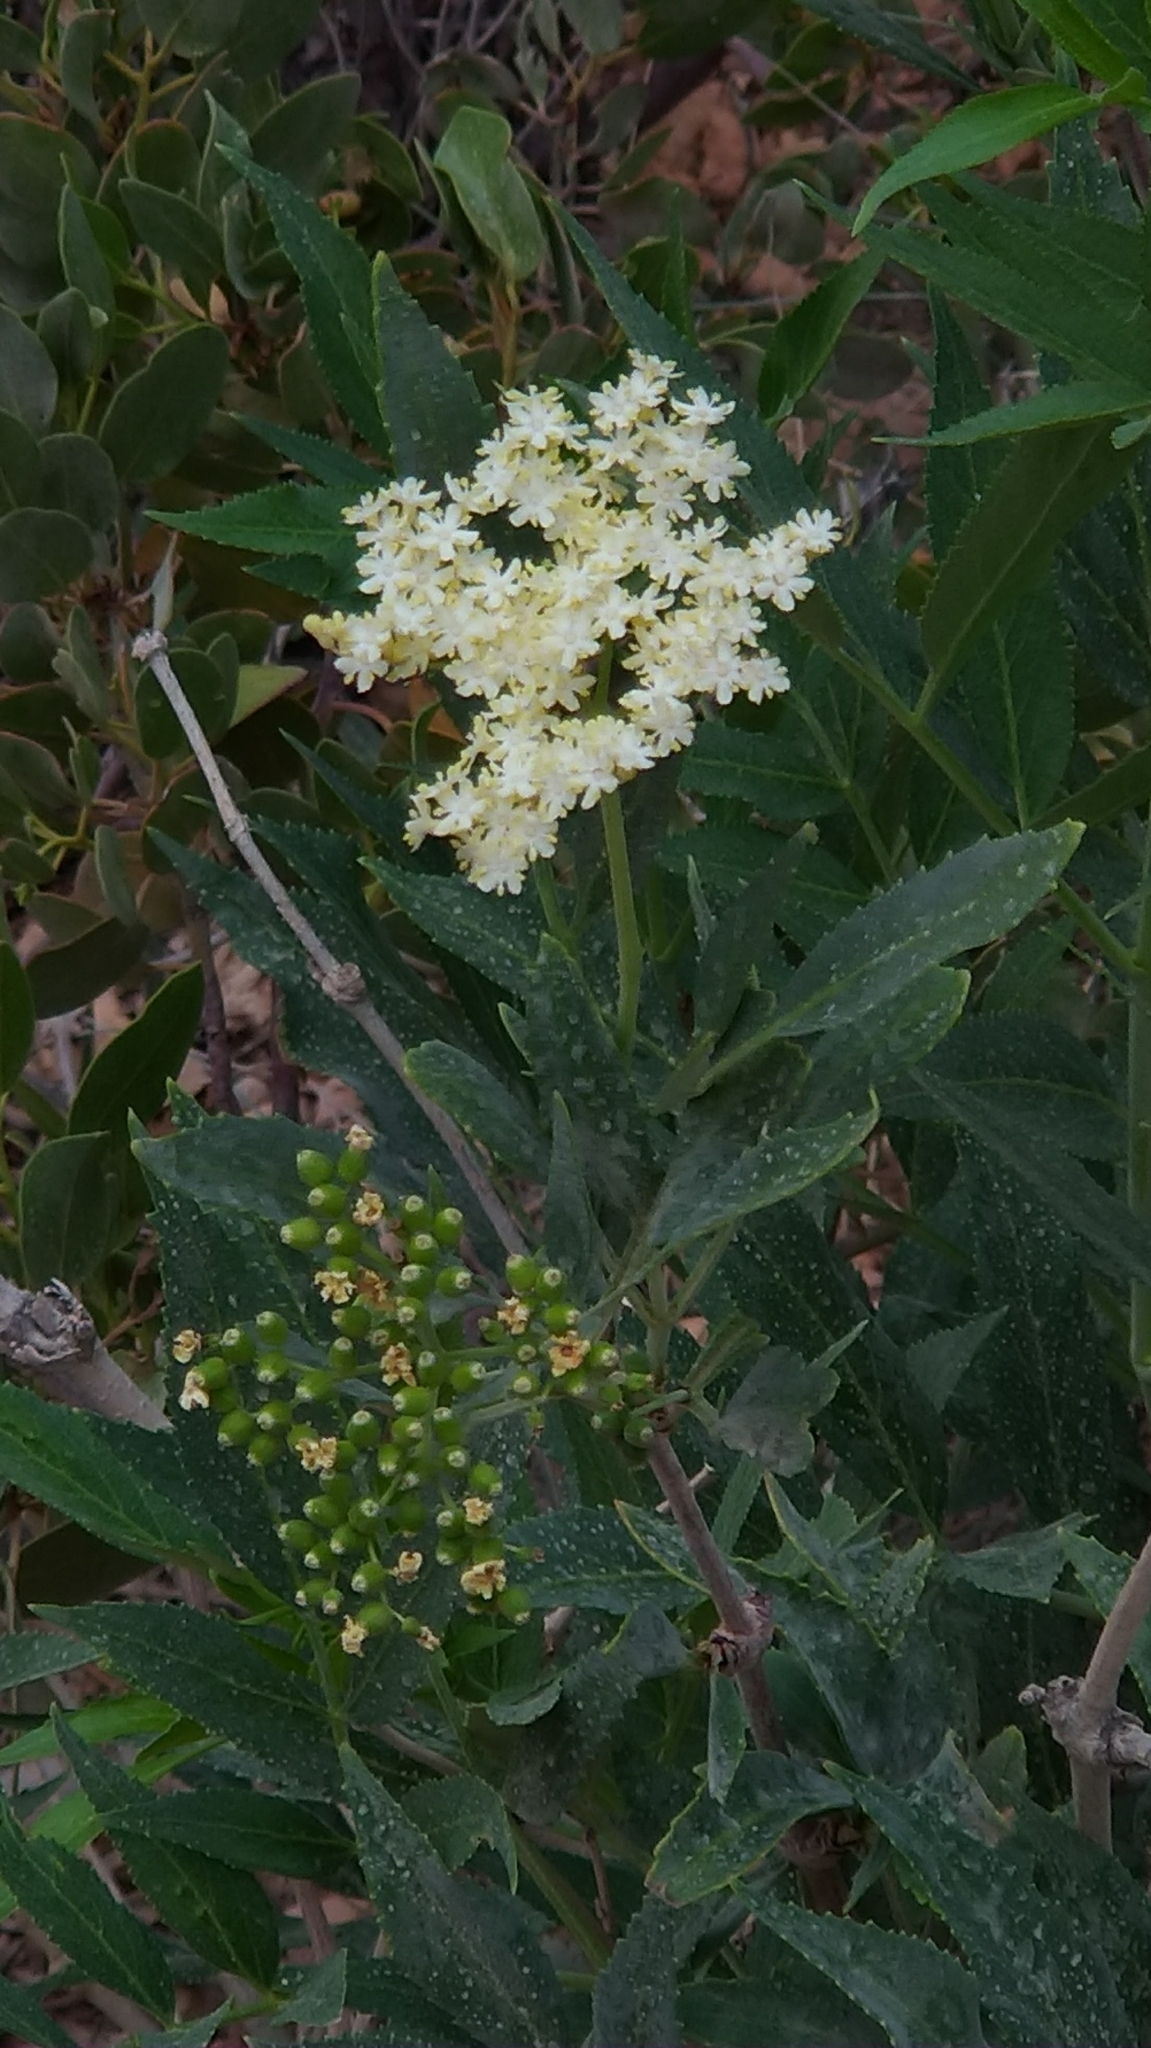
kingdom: Plantae
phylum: Tracheophyta
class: Magnoliopsida
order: Dipsacales
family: Viburnaceae
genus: Sambucus
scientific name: Sambucus cerulea
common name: Blue elder
